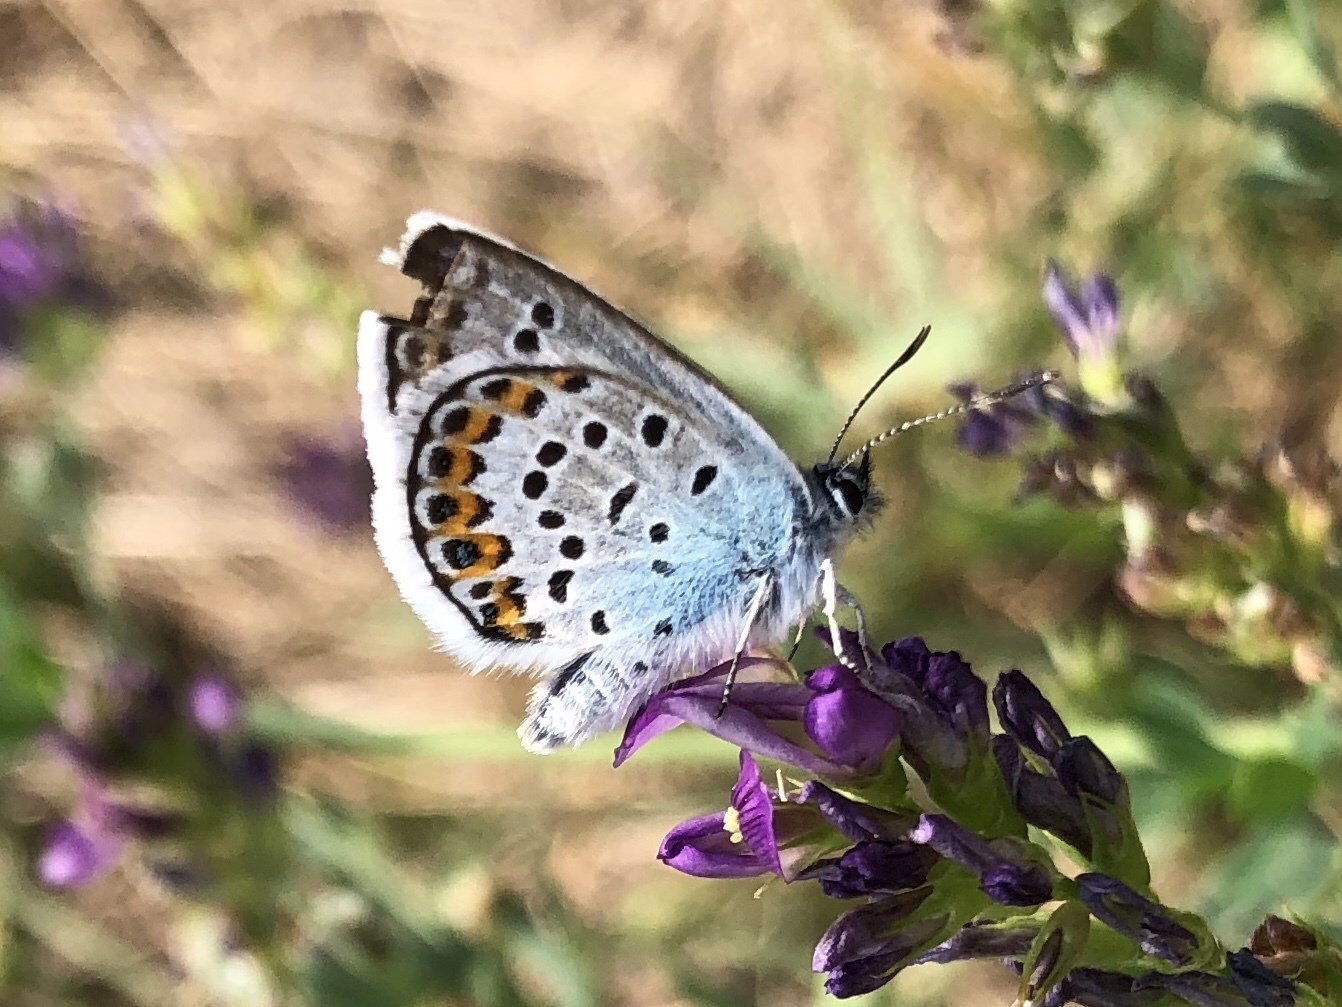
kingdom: Animalia
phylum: Arthropoda
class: Insecta
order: Lepidoptera
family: Lycaenidae
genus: Plebejus
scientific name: Plebejus argus
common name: Silver-studded blue
